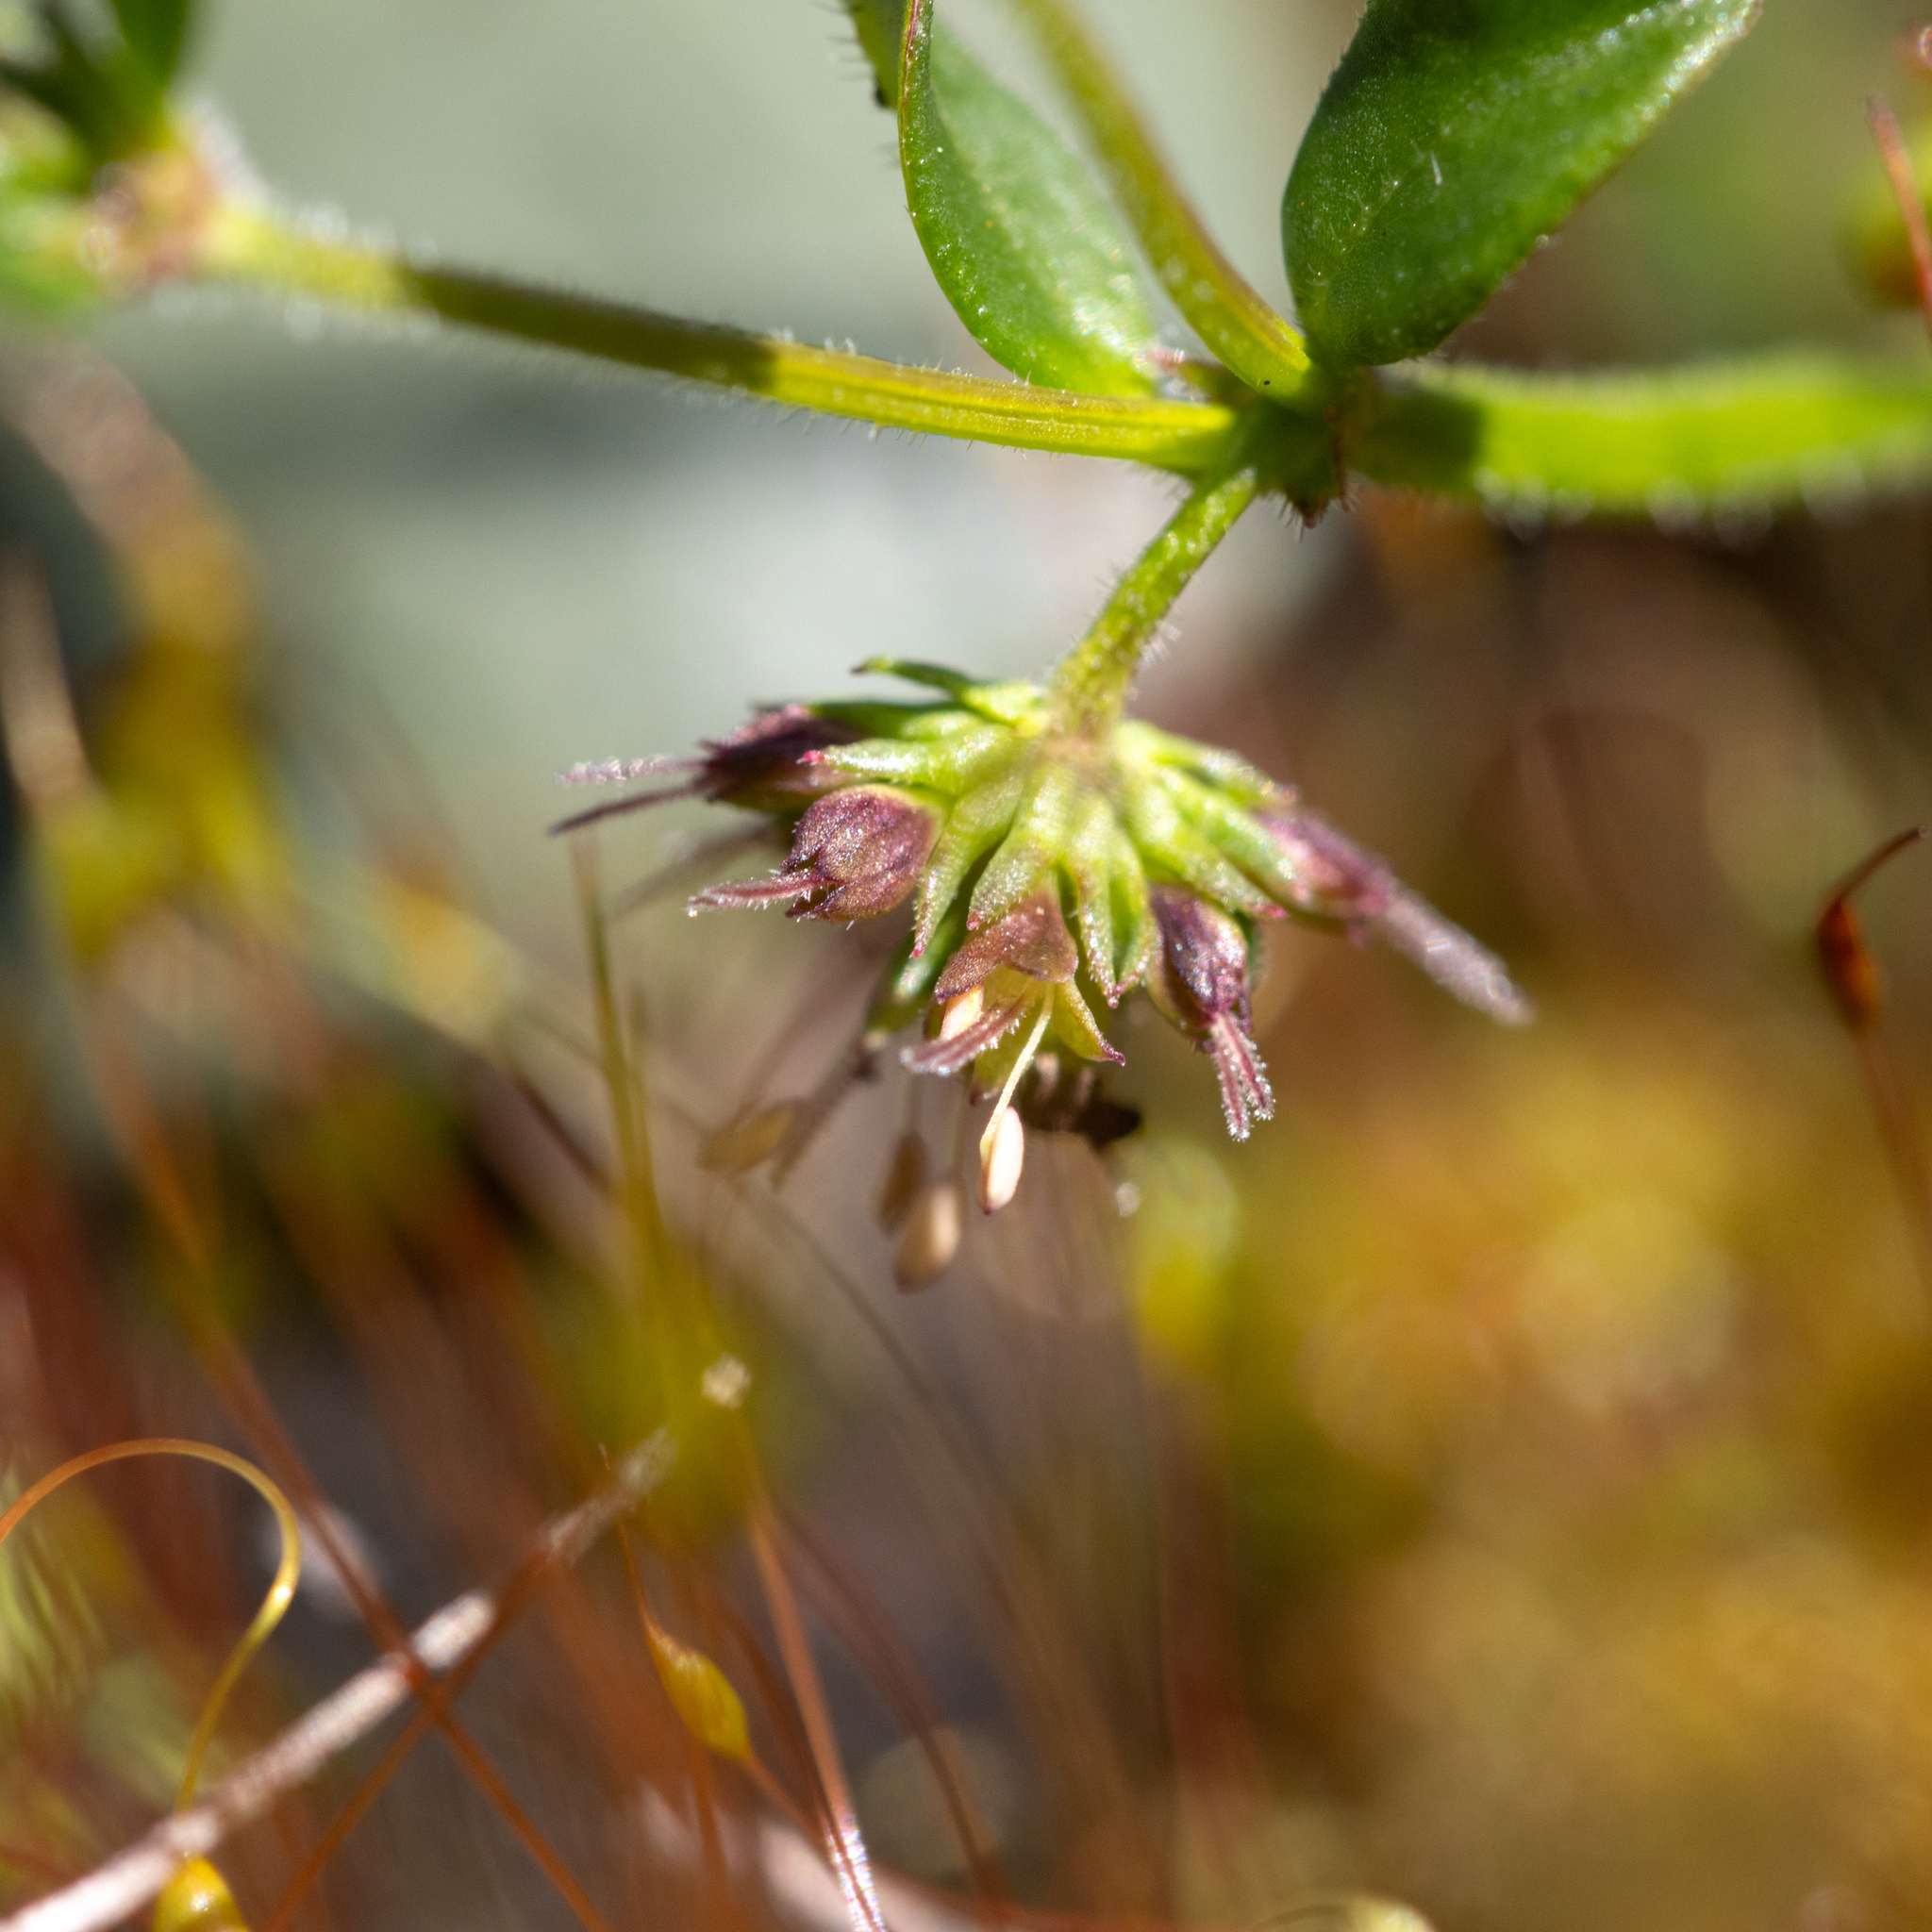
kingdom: Plantae
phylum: Tracheophyta
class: Magnoliopsida
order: Gentianales
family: Rubiaceae
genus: Opercularia
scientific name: Opercularia varia
